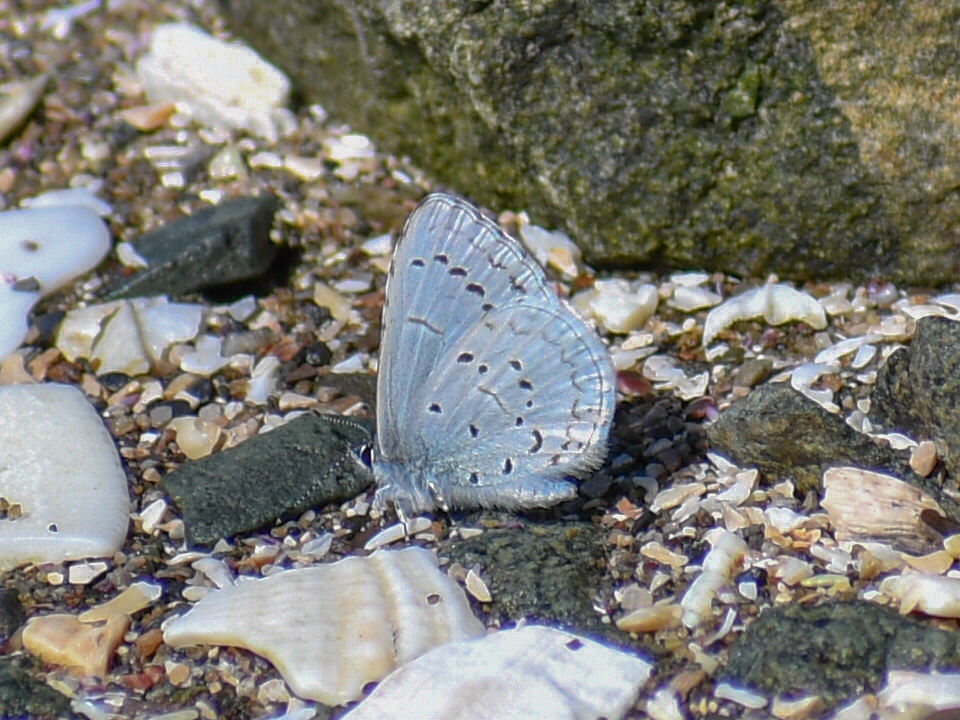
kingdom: Animalia
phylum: Arthropoda
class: Insecta
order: Lepidoptera
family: Lycaenidae
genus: Celastrina
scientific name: Celastrina ladon
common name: Spring azure
